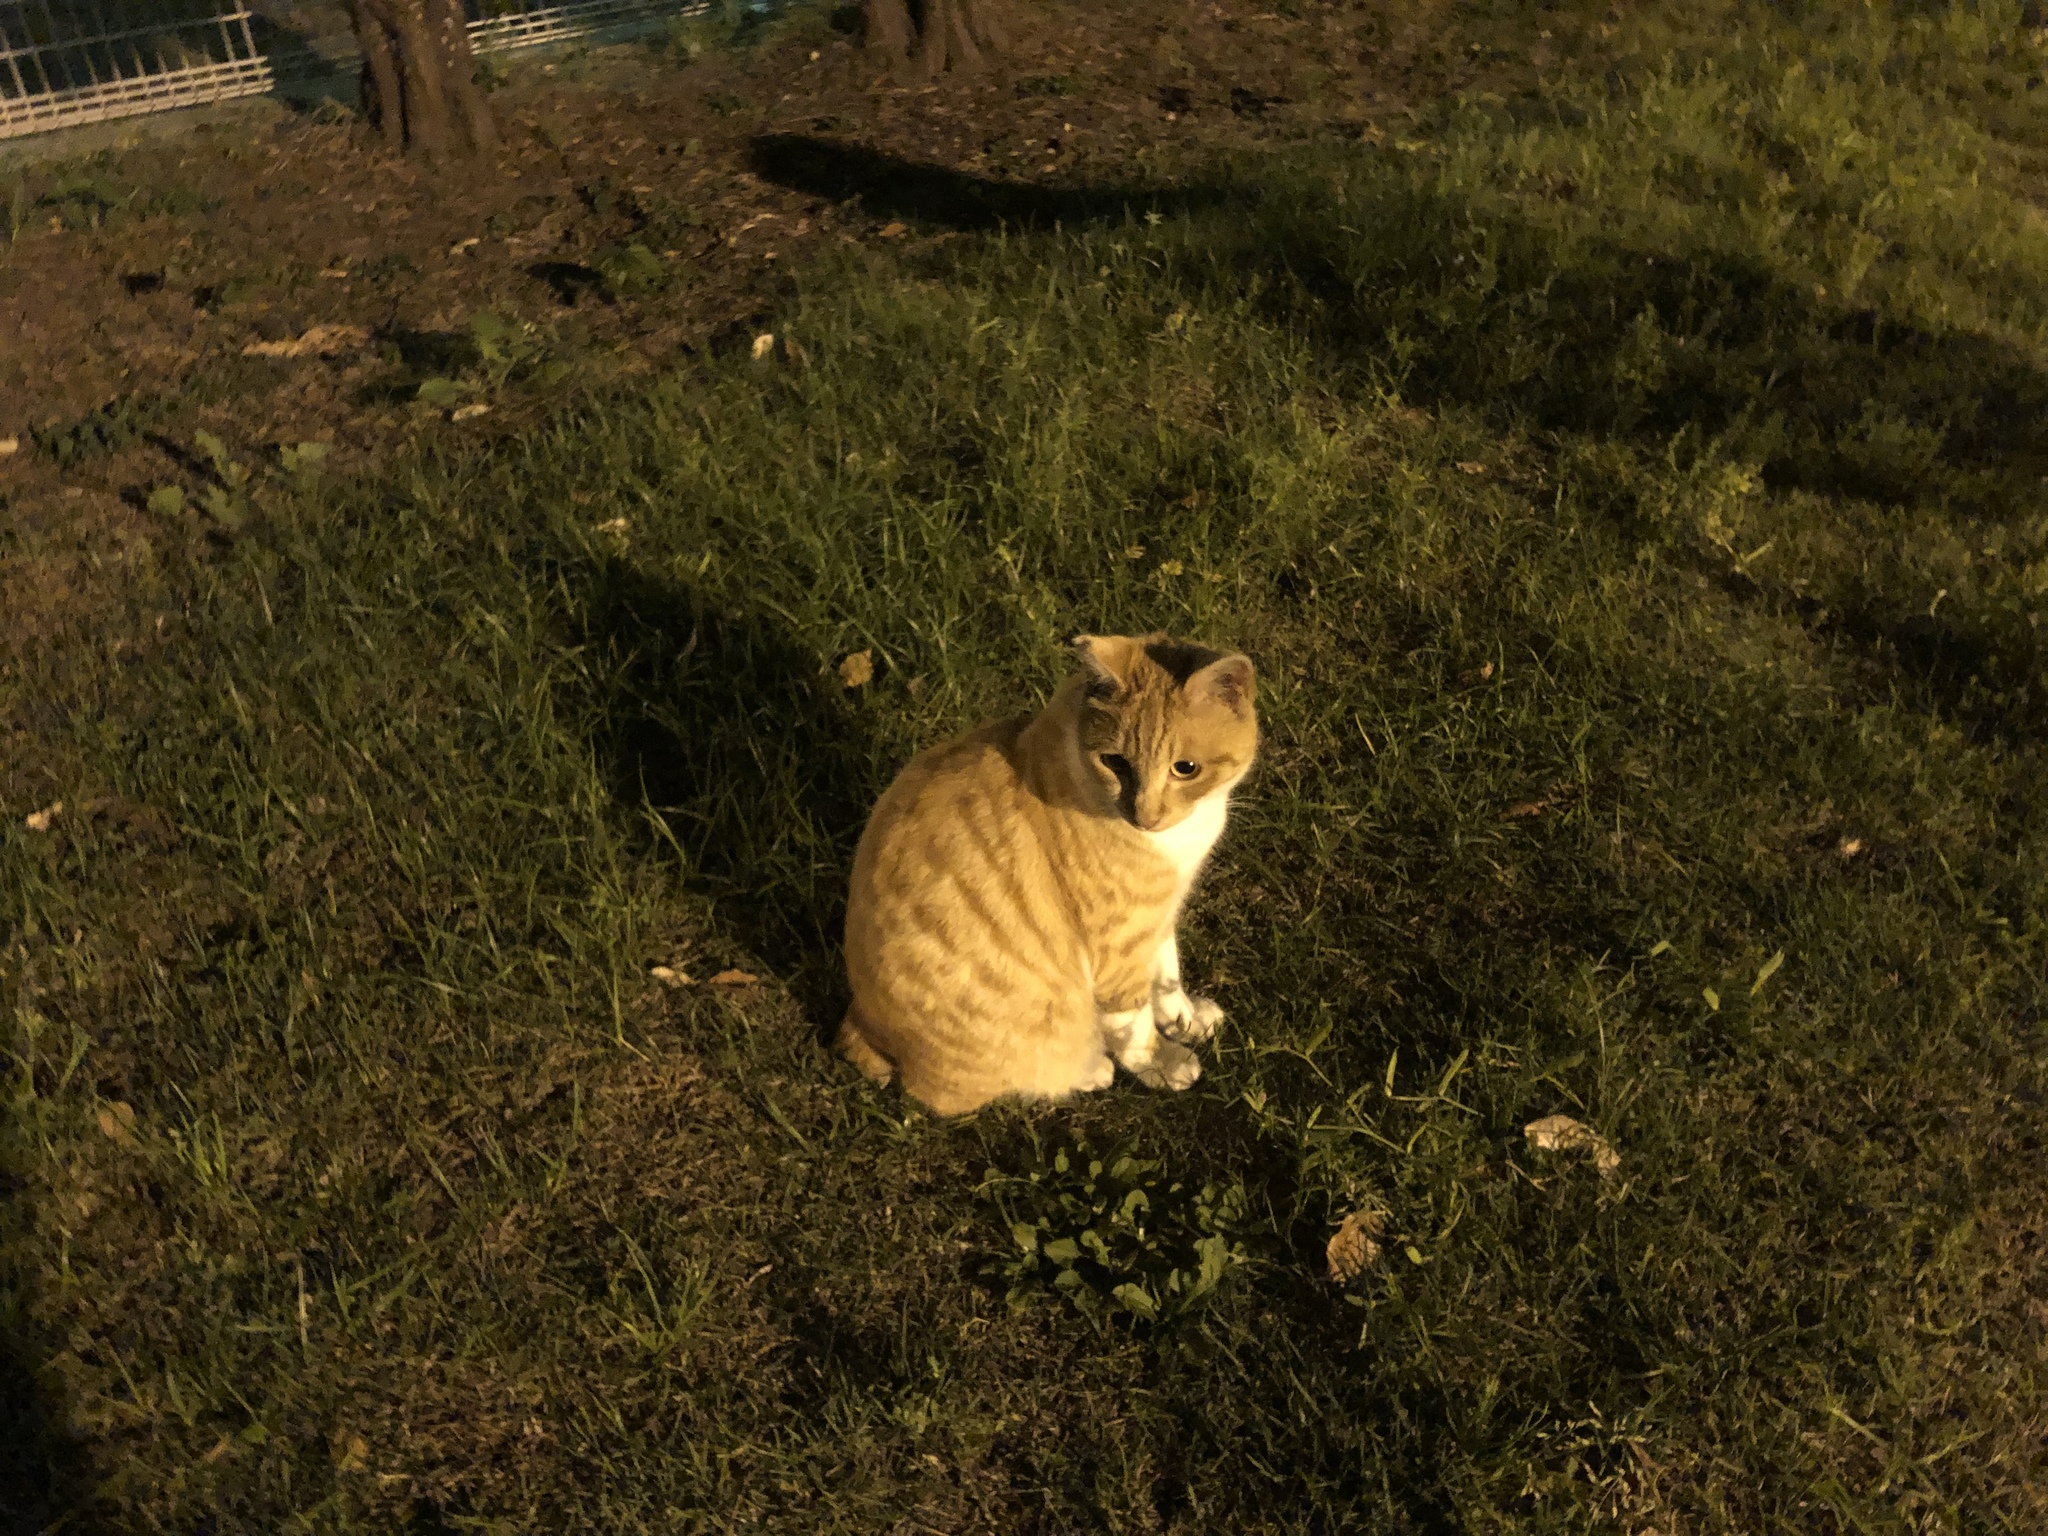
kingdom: Animalia
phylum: Chordata
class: Mammalia
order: Carnivora
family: Felidae
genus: Felis
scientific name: Felis catus
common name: Domestic cat
